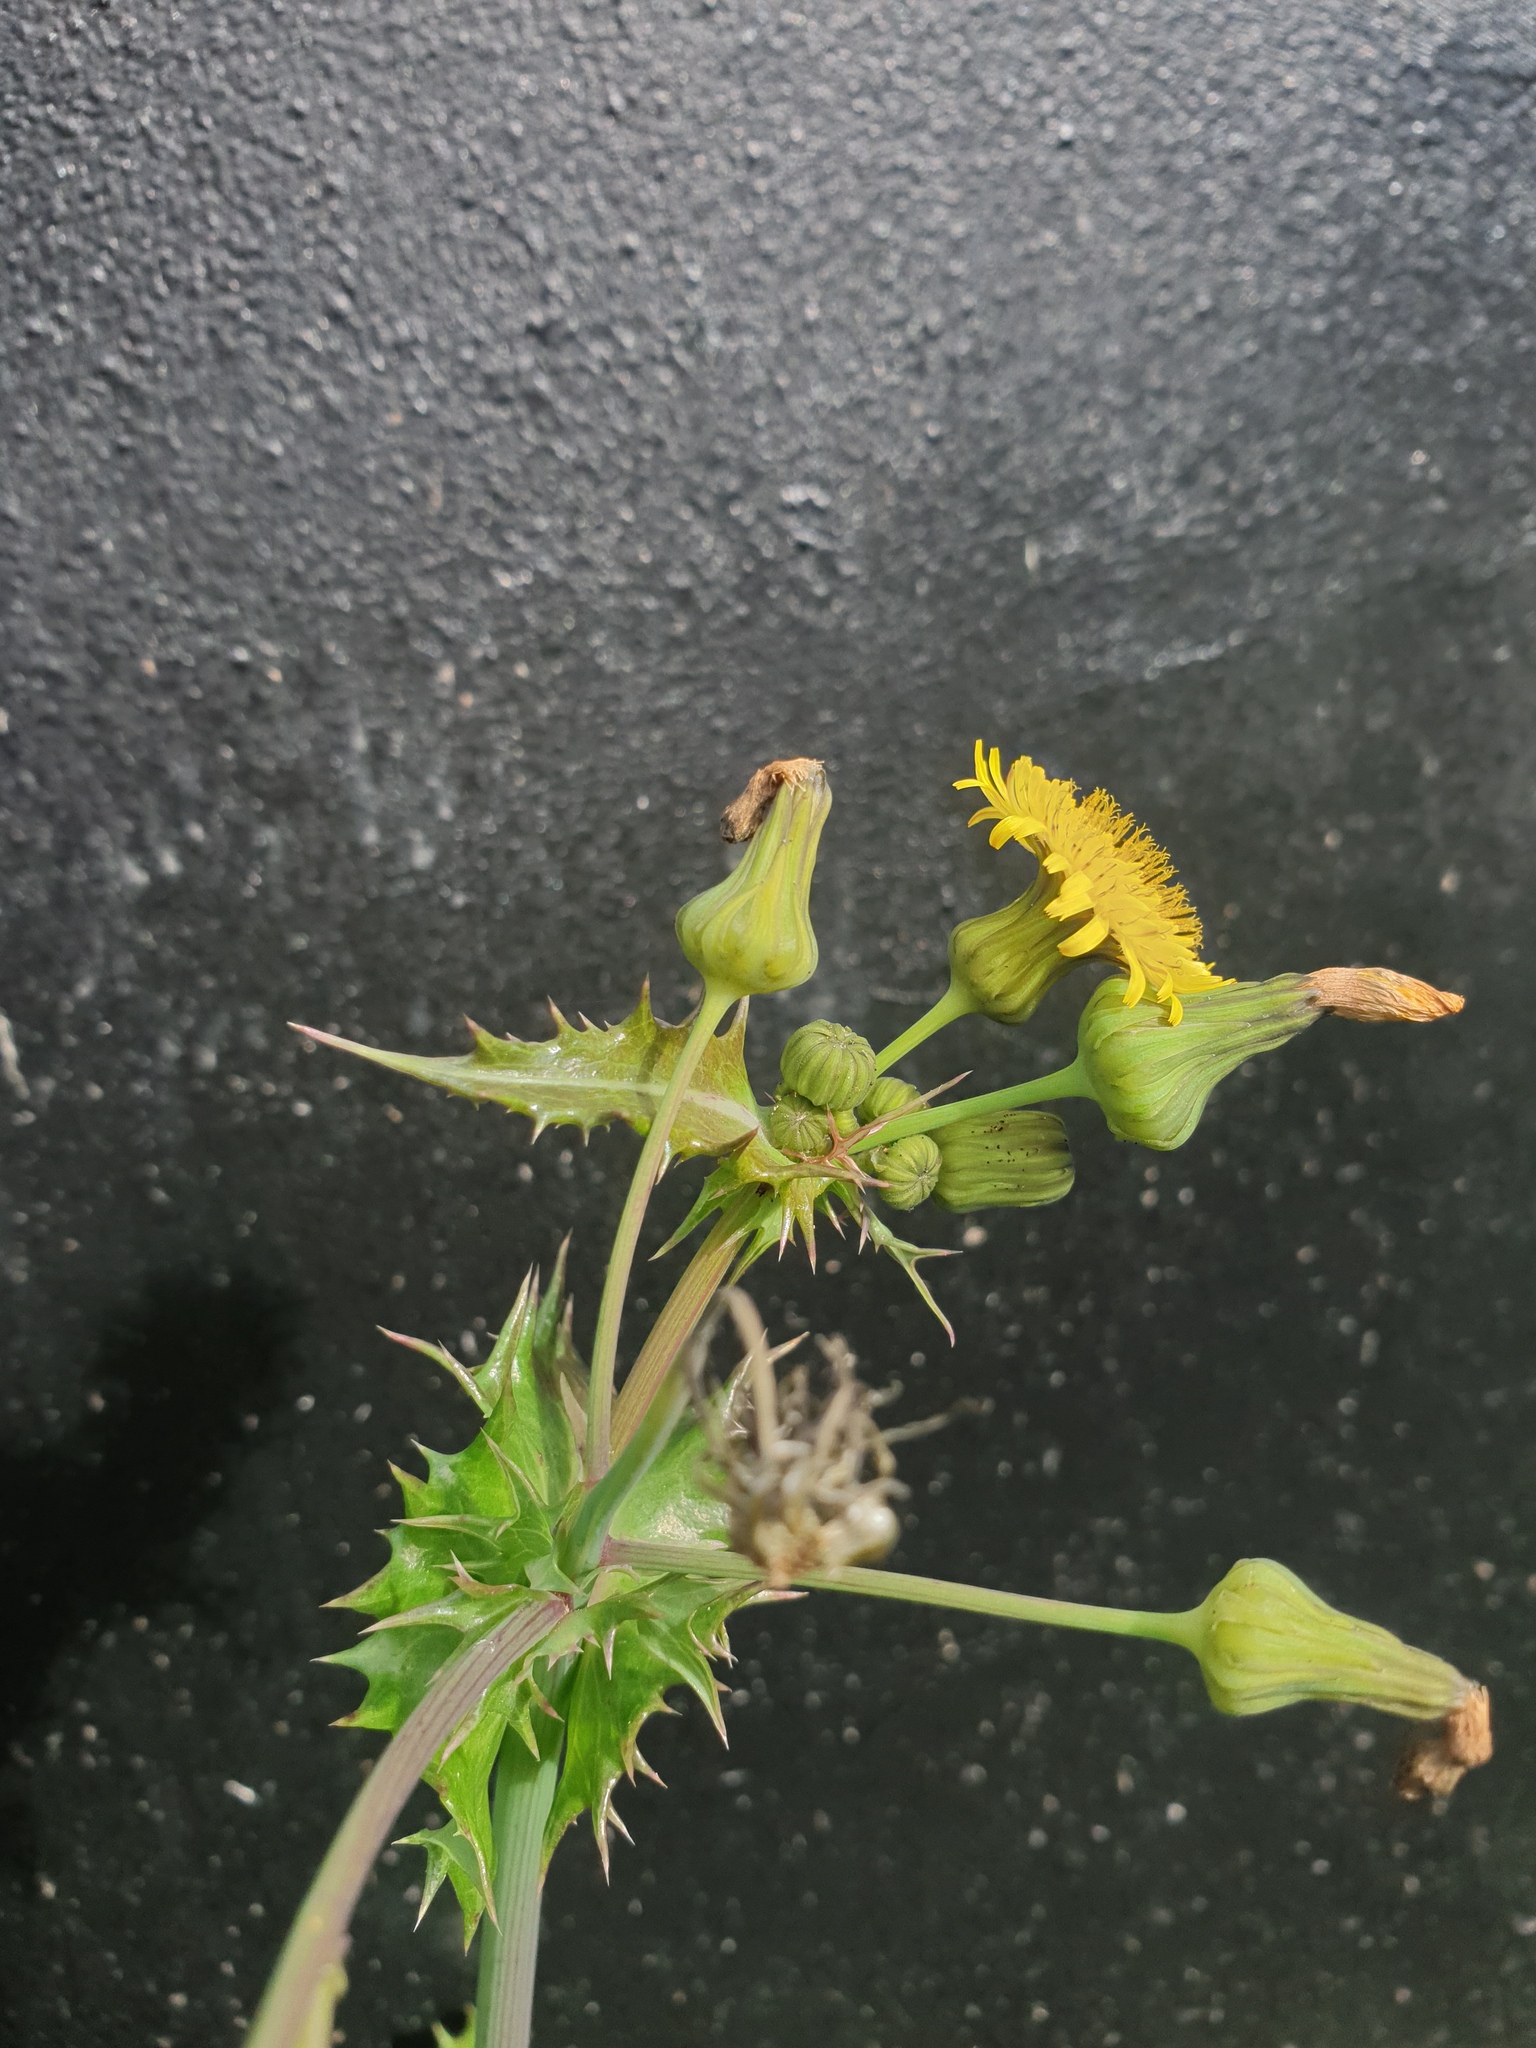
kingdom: Plantae
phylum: Tracheophyta
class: Magnoliopsida
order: Asterales
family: Asteraceae
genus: Sonchus
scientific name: Sonchus asper
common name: Prickly sow-thistle
